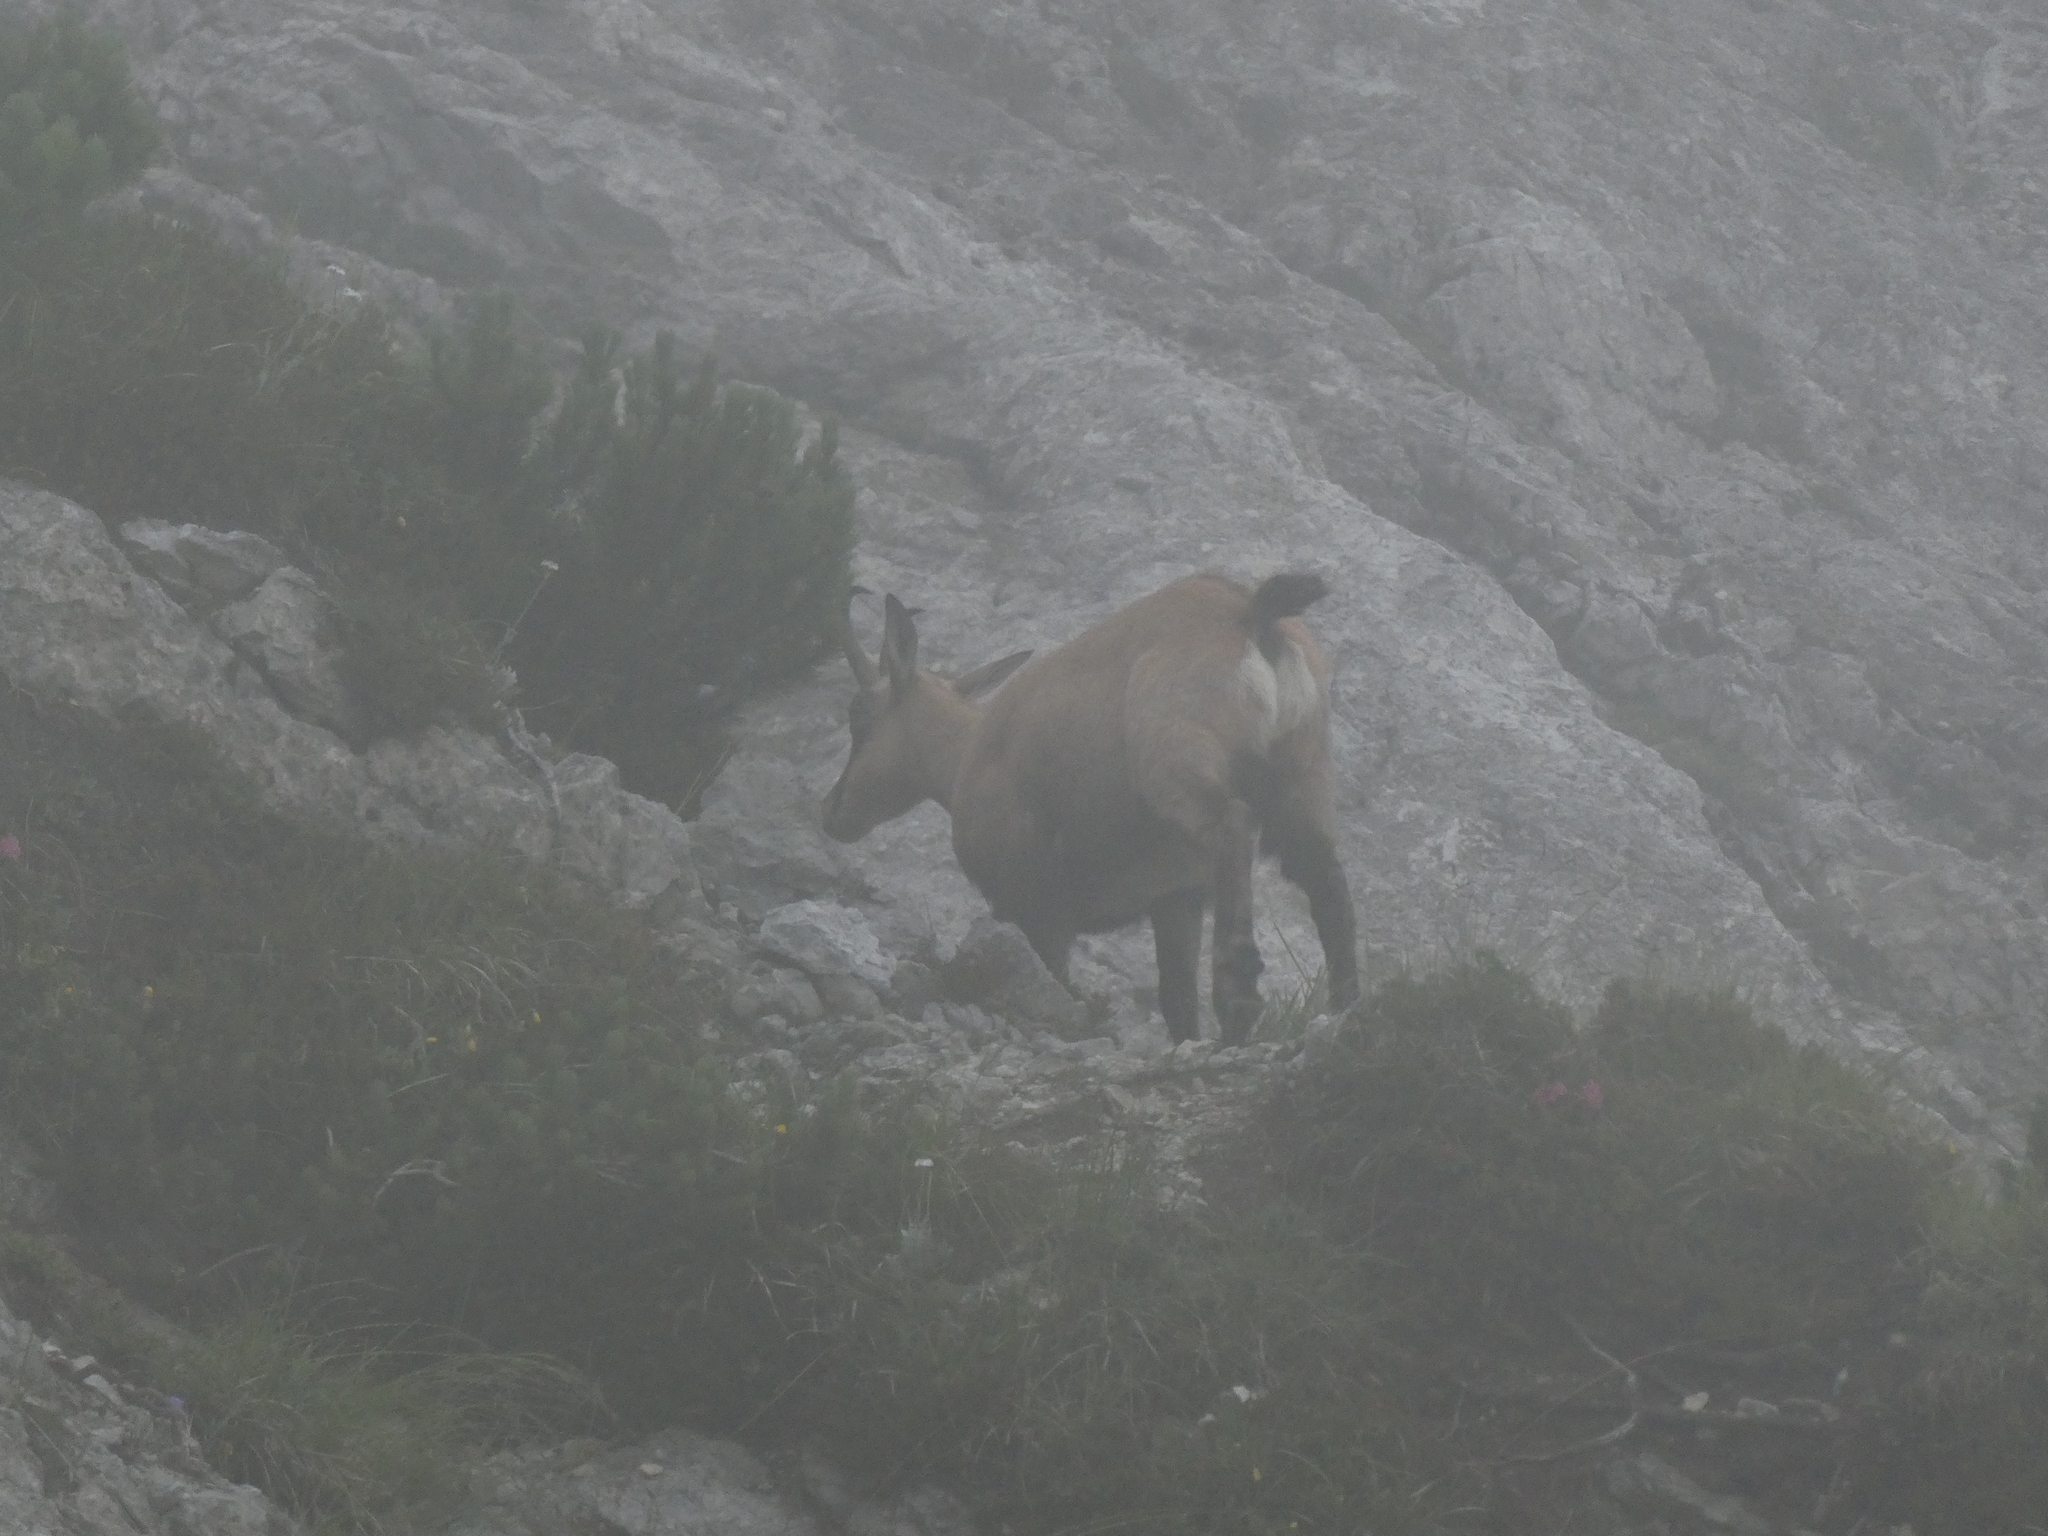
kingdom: Animalia
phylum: Chordata
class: Mammalia
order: Artiodactyla
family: Bovidae
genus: Rupicapra
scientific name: Rupicapra rupicapra
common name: Chamois
